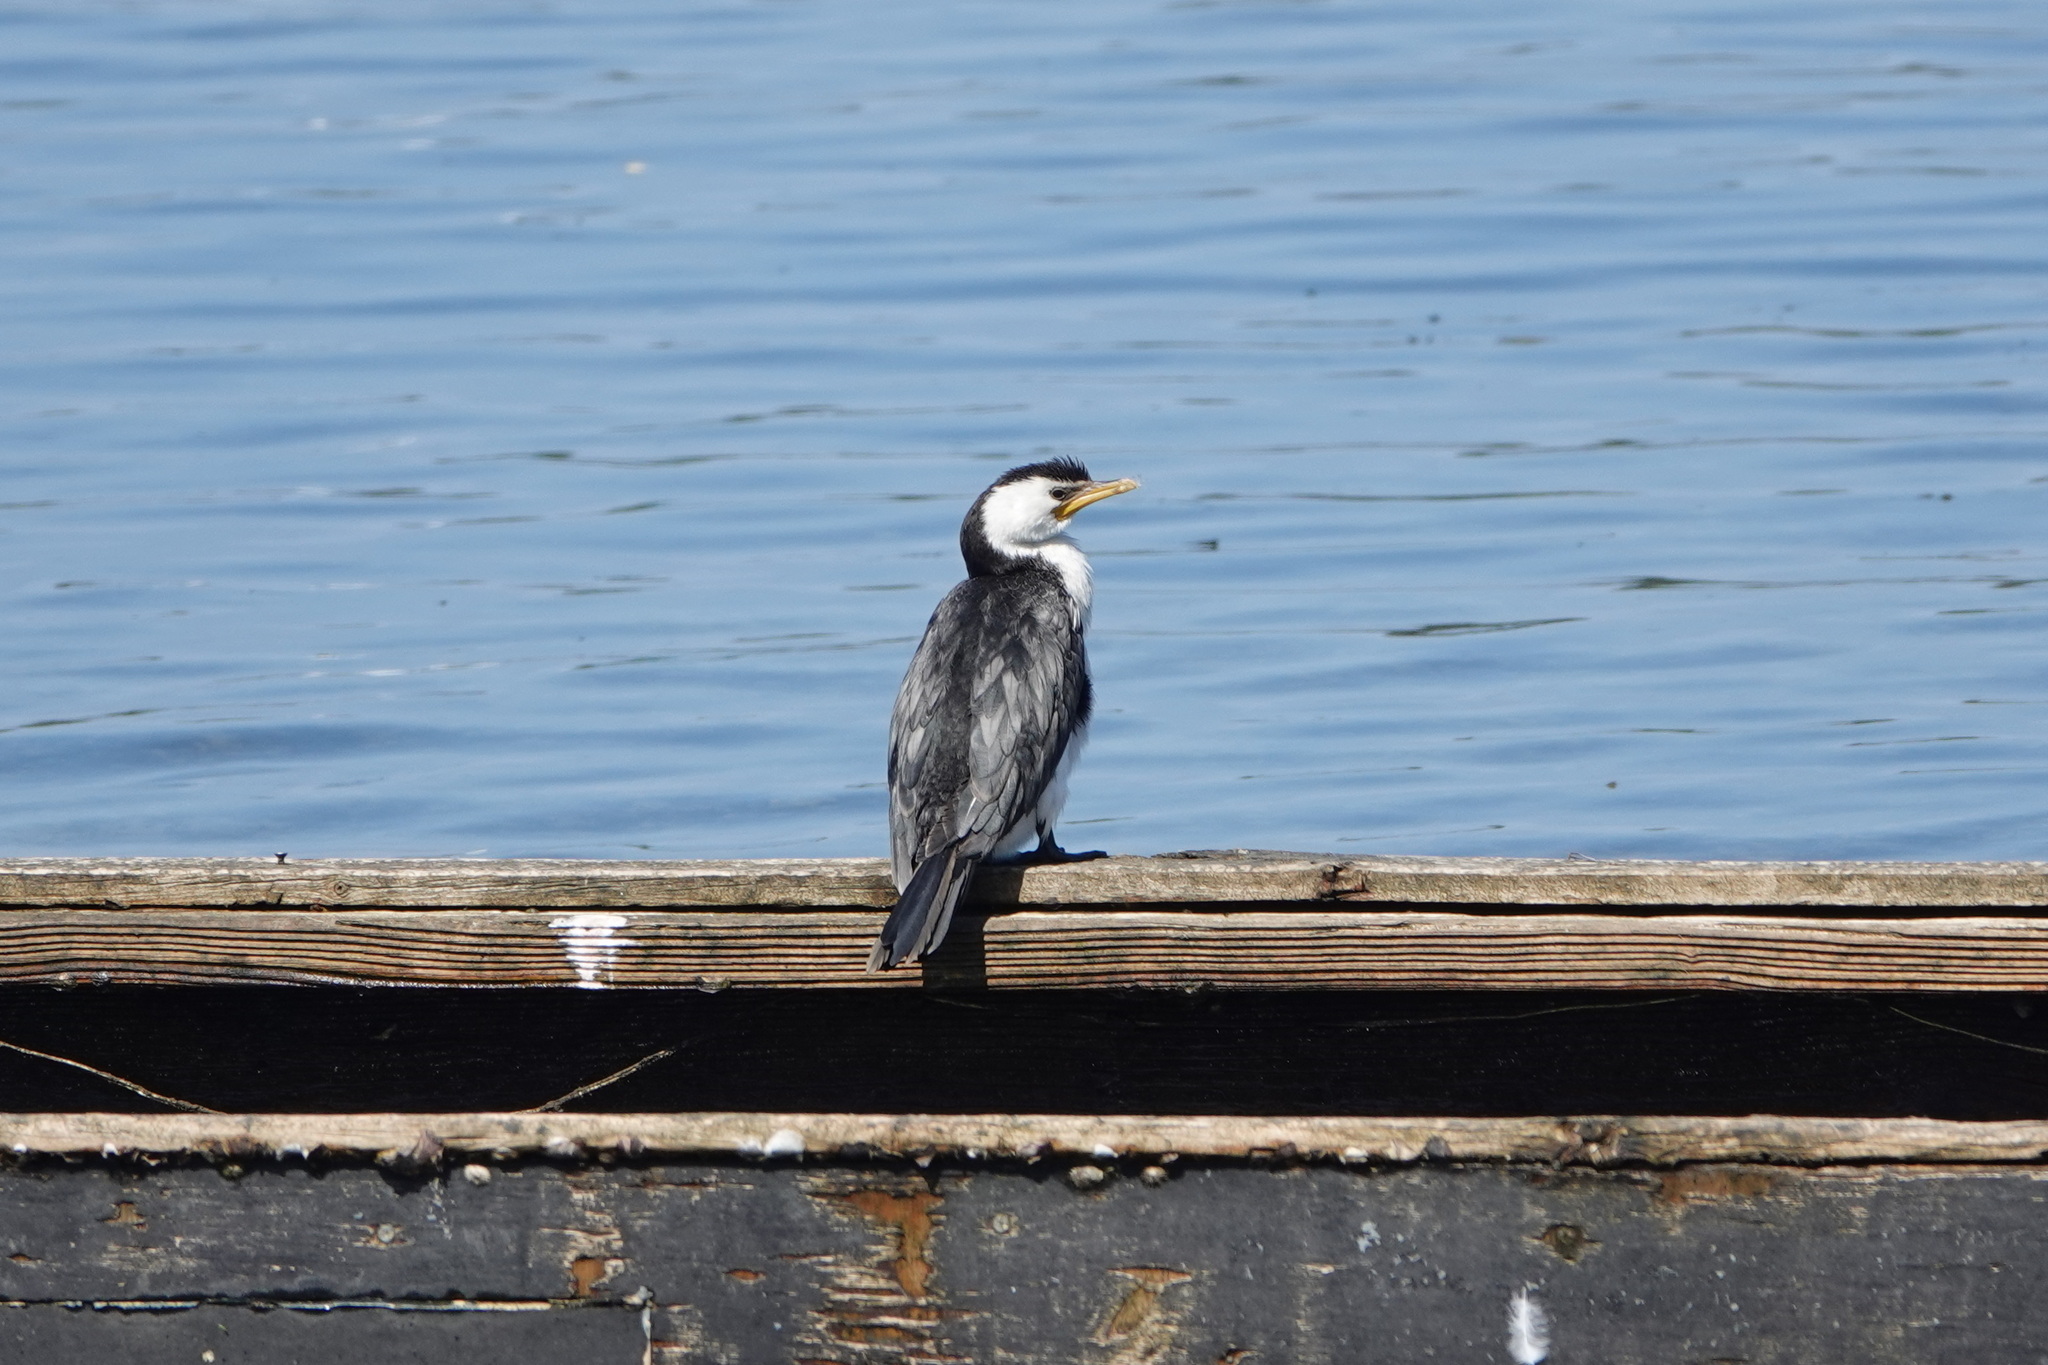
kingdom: Animalia
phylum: Chordata
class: Aves
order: Suliformes
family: Phalacrocoracidae
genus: Microcarbo
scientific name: Microcarbo melanoleucos
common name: Little pied cormorant
